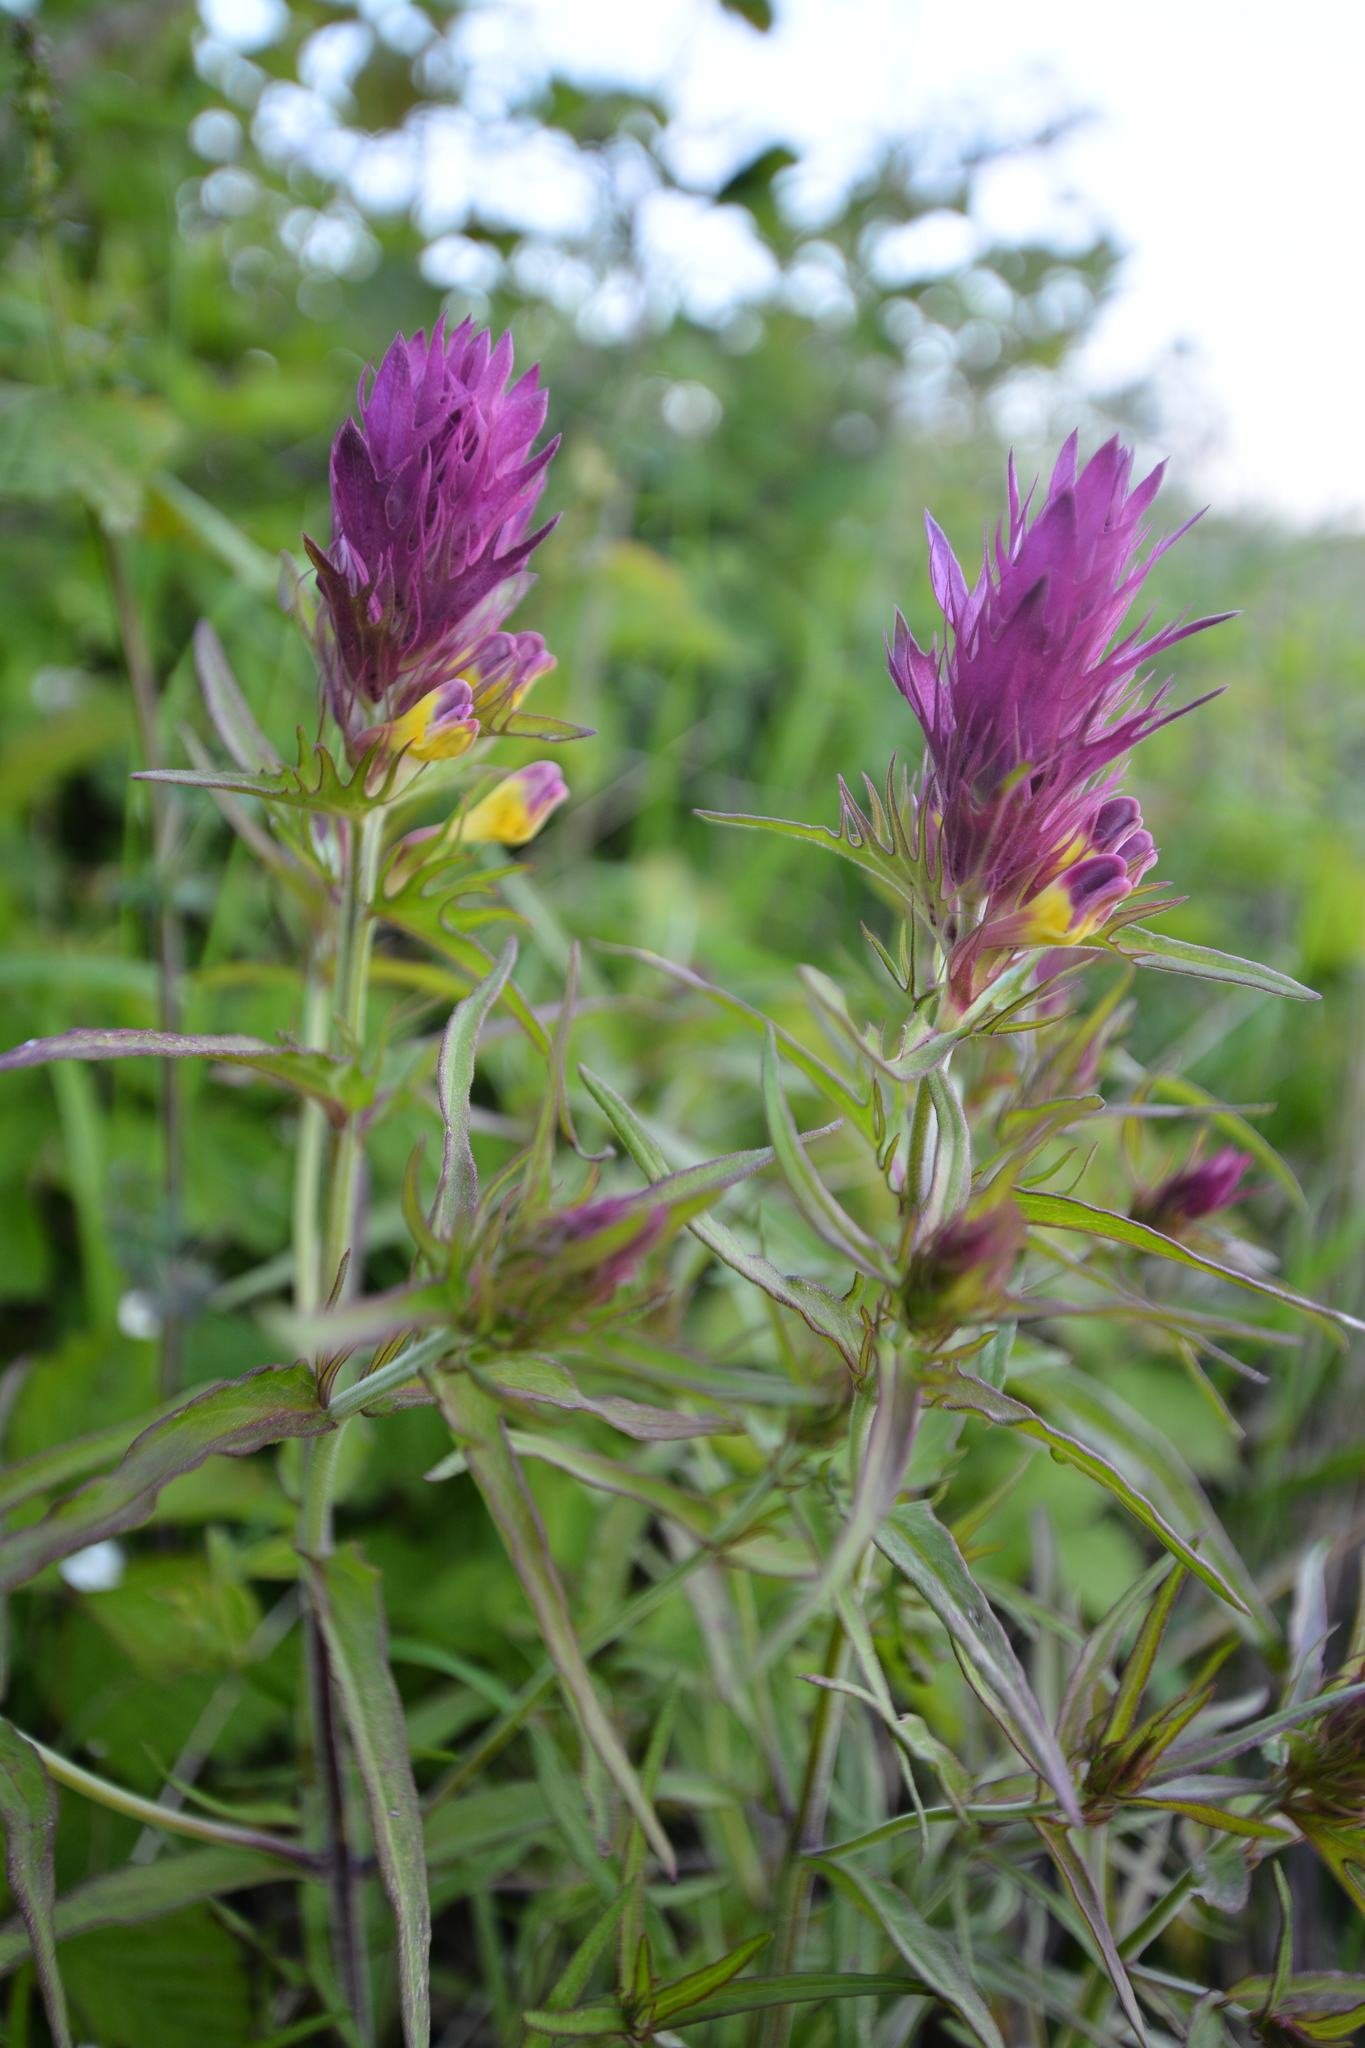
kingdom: Plantae
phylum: Tracheophyta
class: Magnoliopsida
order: Lamiales
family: Orobanchaceae
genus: Melampyrum
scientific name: Melampyrum arvense
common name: Field cow-wheat
